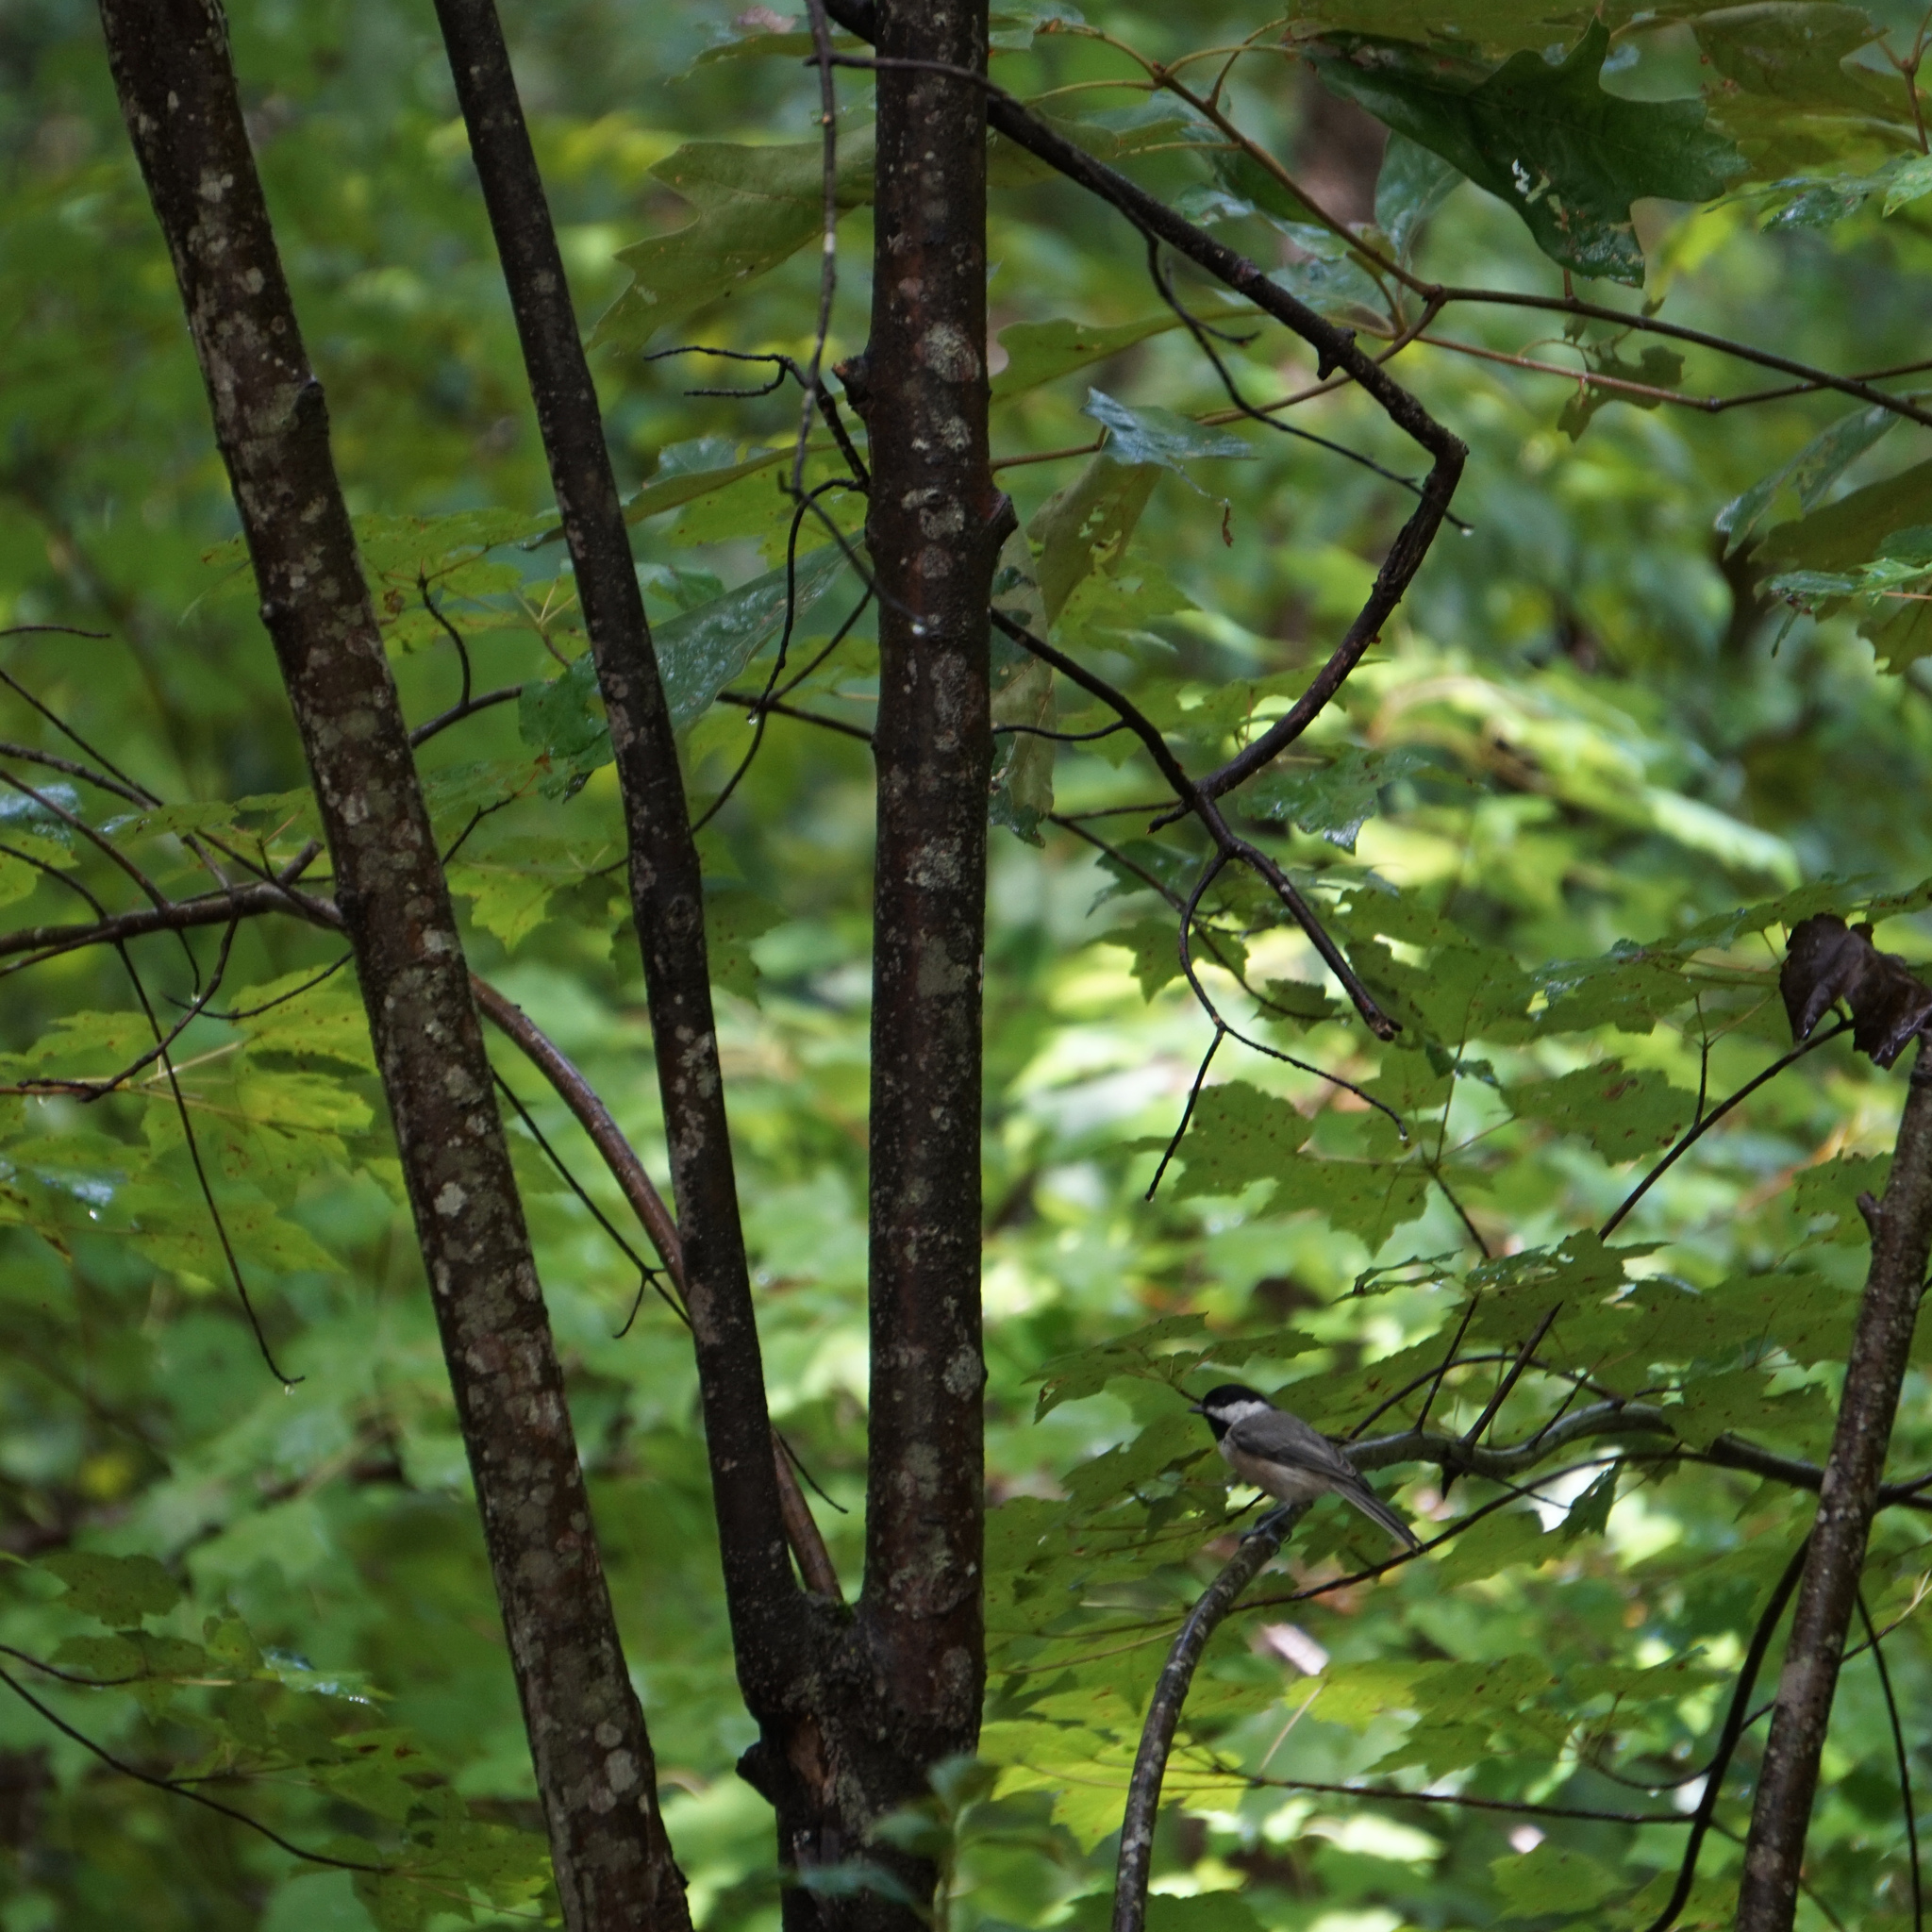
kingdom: Animalia
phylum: Chordata
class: Aves
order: Passeriformes
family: Paridae
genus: Poecile
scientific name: Poecile carolinensis
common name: Carolina chickadee
